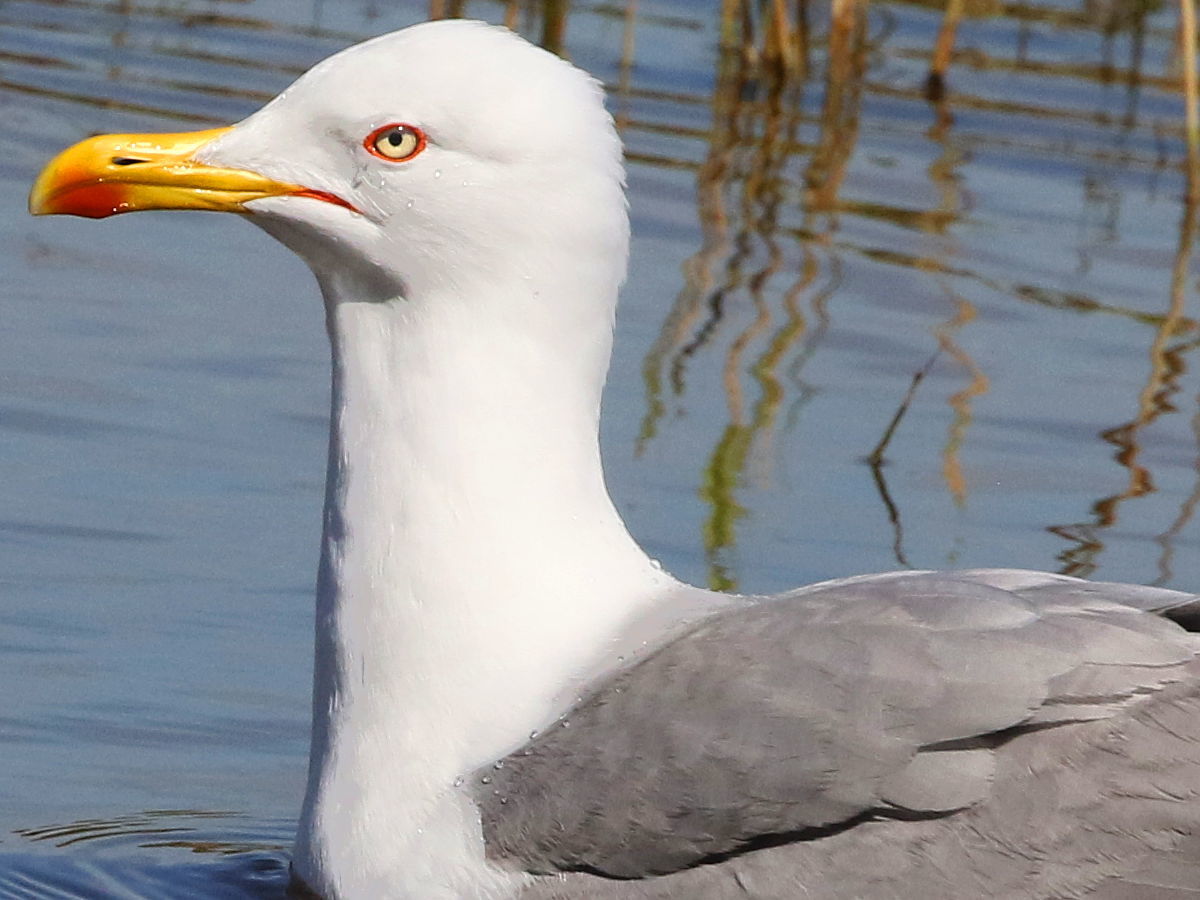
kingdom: Animalia
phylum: Chordata
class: Aves
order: Charadriiformes
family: Laridae
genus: Larus
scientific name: Larus michahellis
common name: Yellow-legged gull
